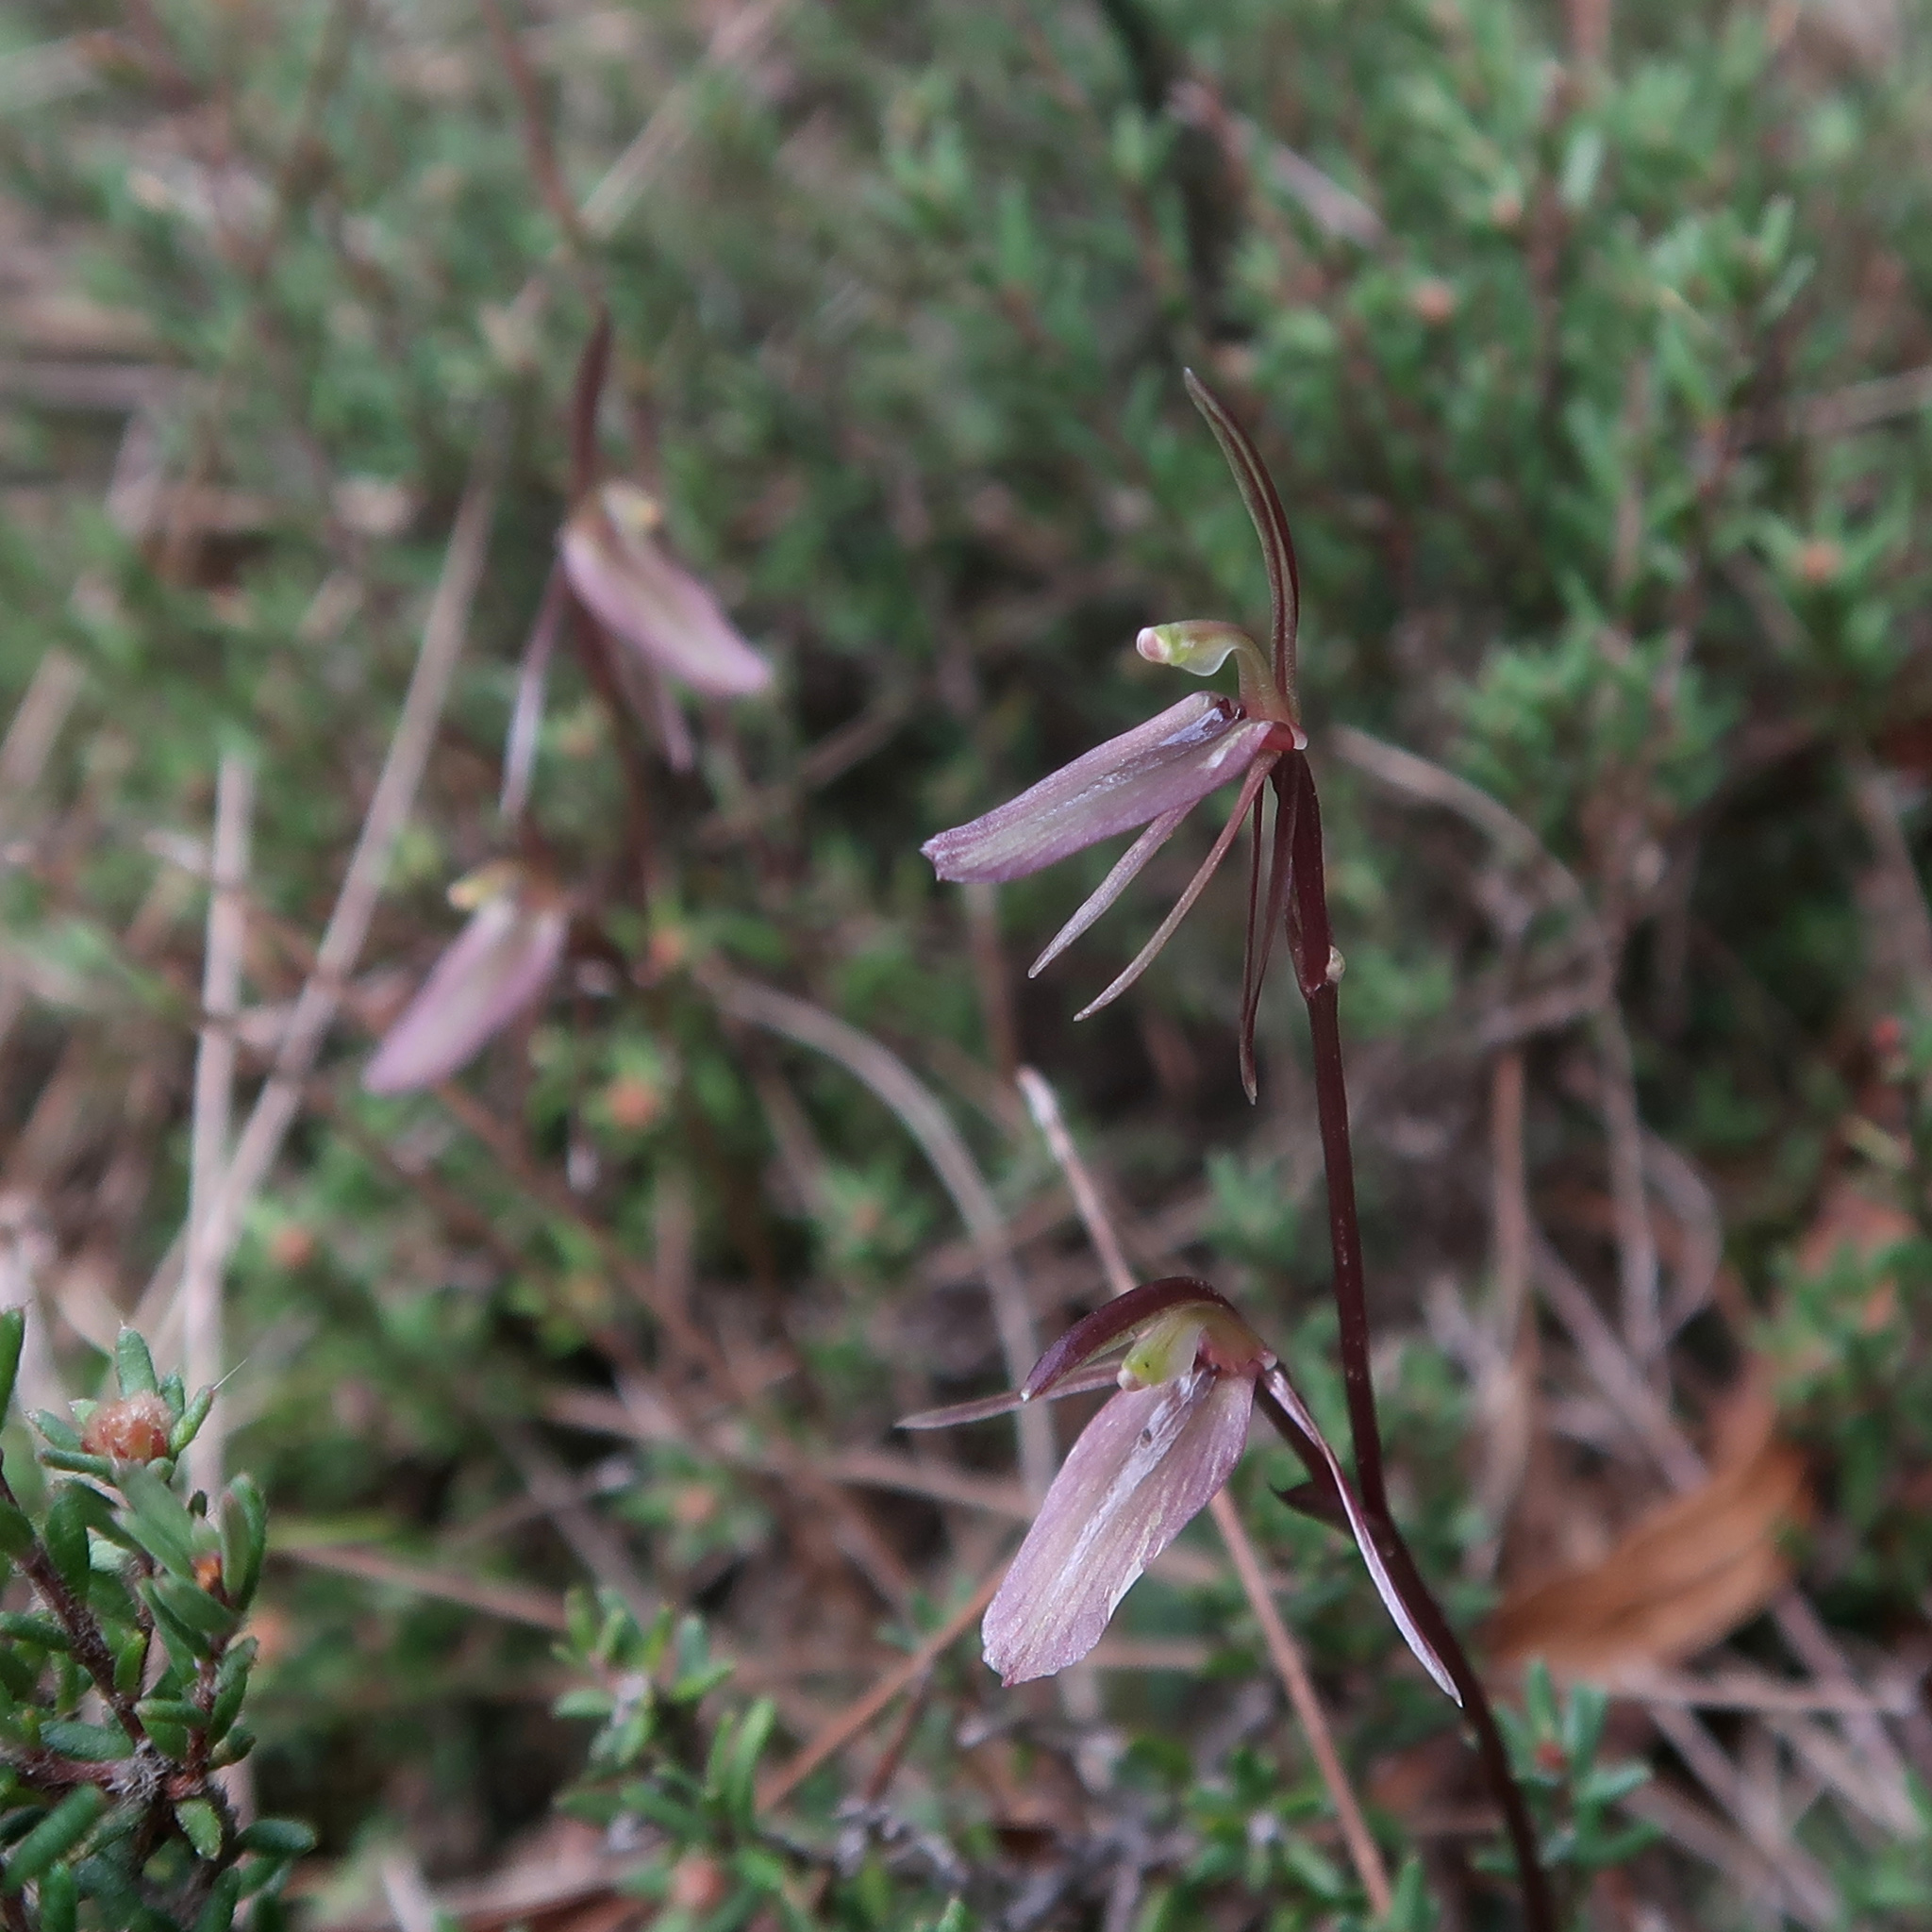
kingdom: Plantae
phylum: Tracheophyta
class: Liliopsida
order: Asparagales
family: Orchidaceae
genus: Cyrtostylis
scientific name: Cyrtostylis reniformis
